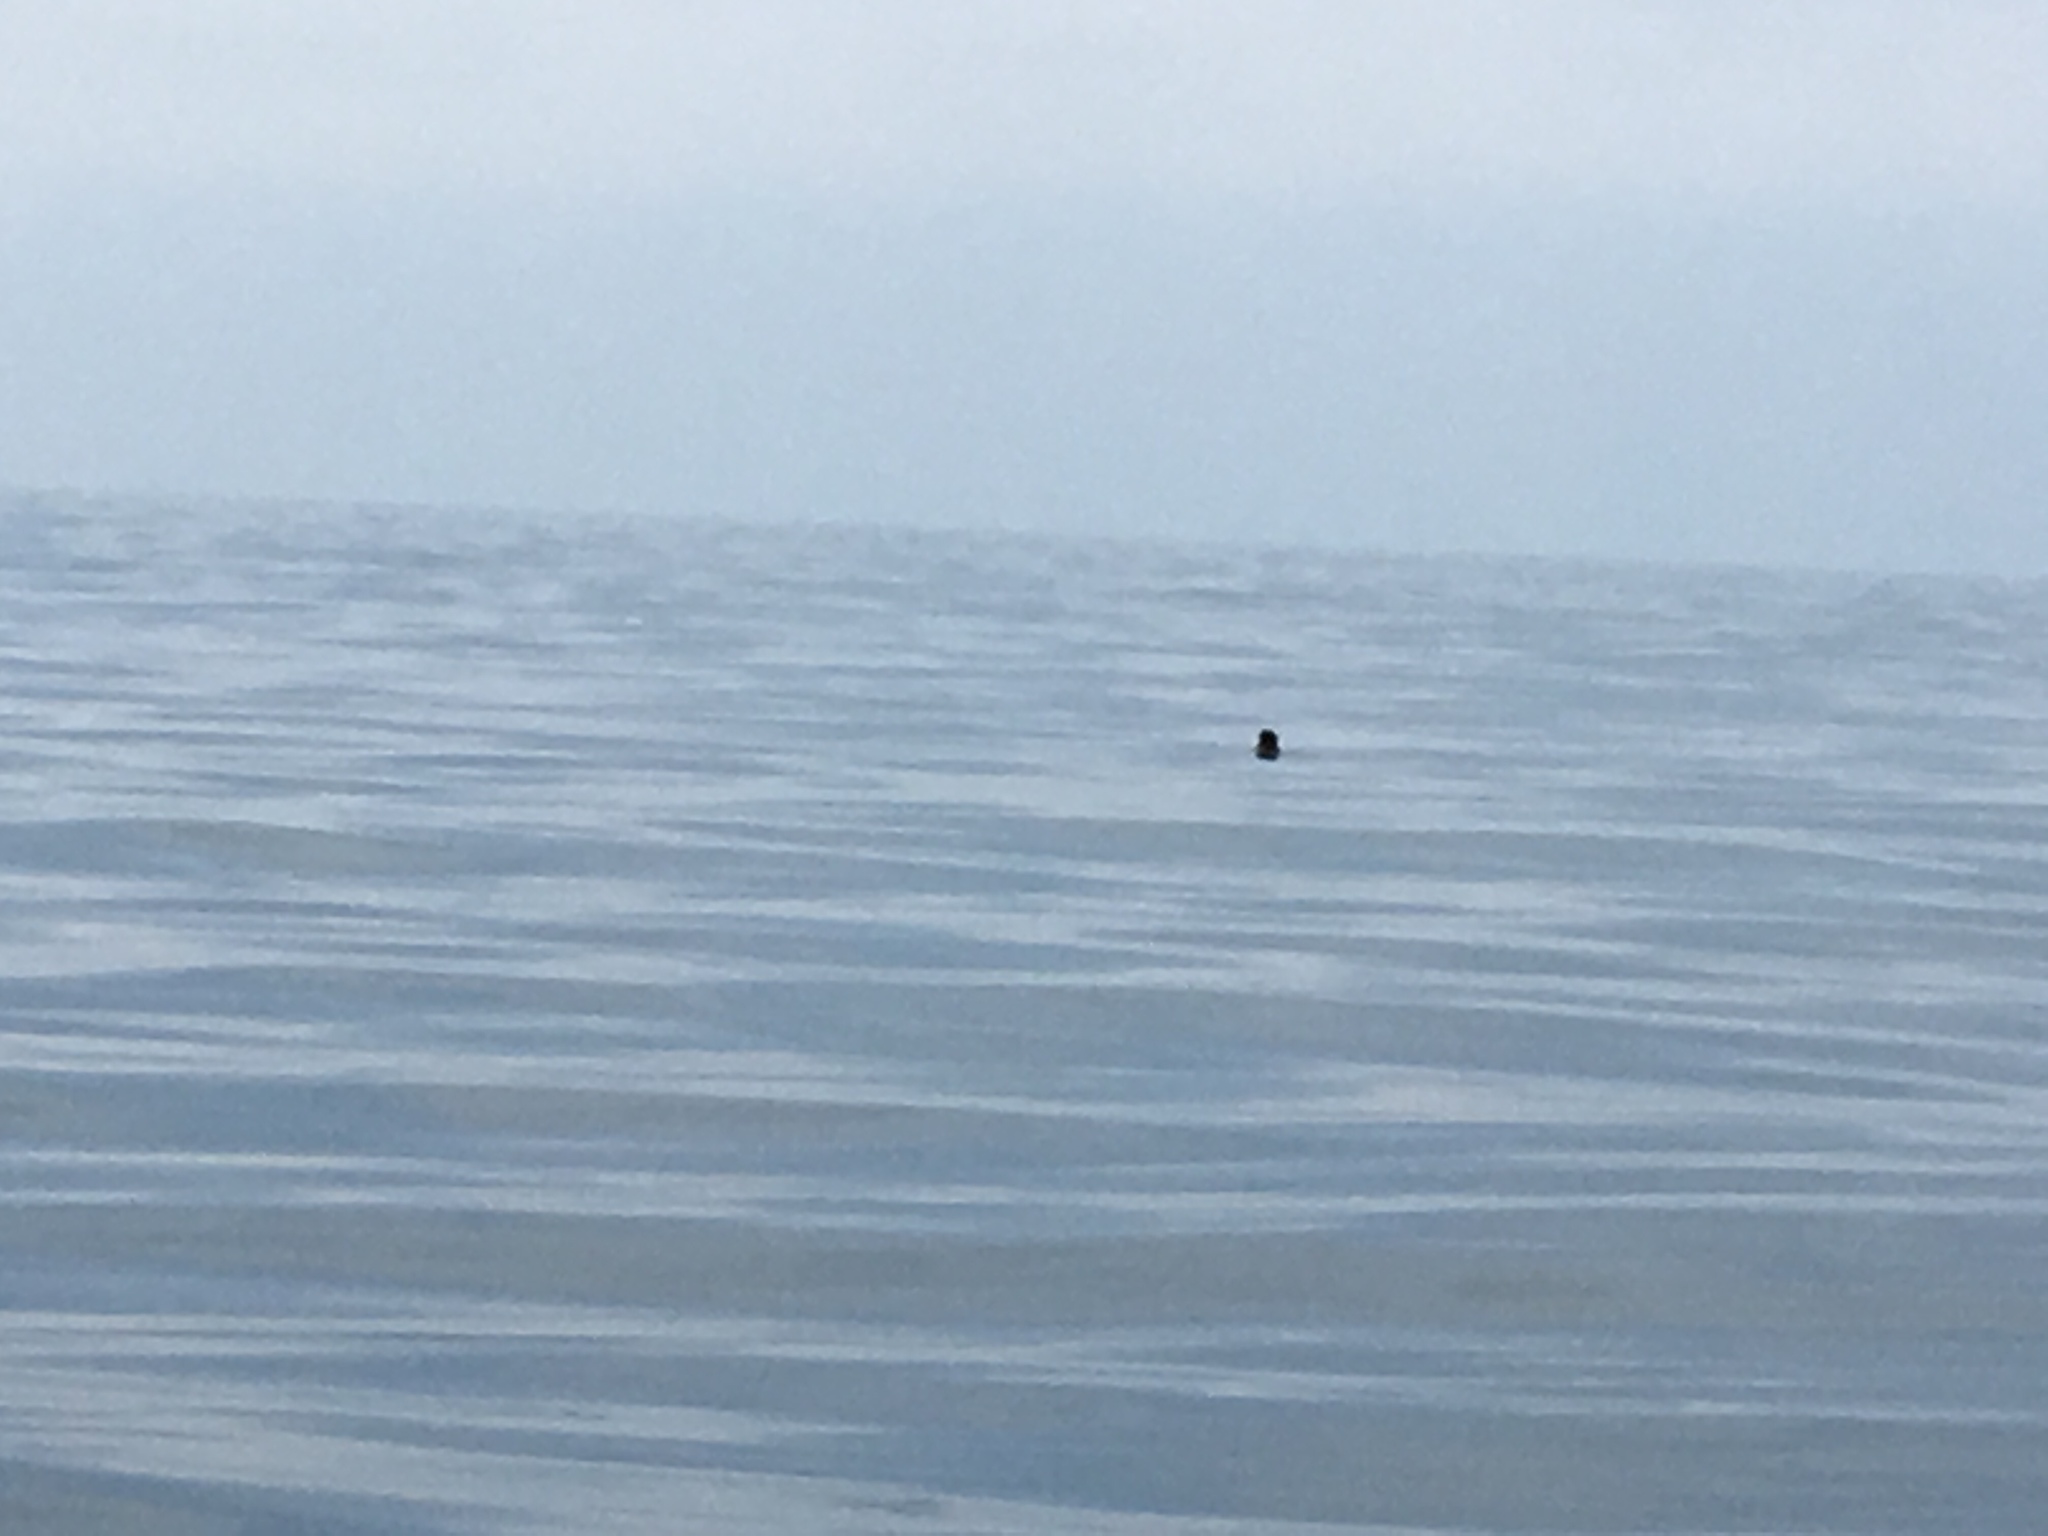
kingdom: Animalia
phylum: Chordata
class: Mammalia
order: Carnivora
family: Mustelidae
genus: Enhydra
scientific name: Enhydra lutris
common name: Sea otter
